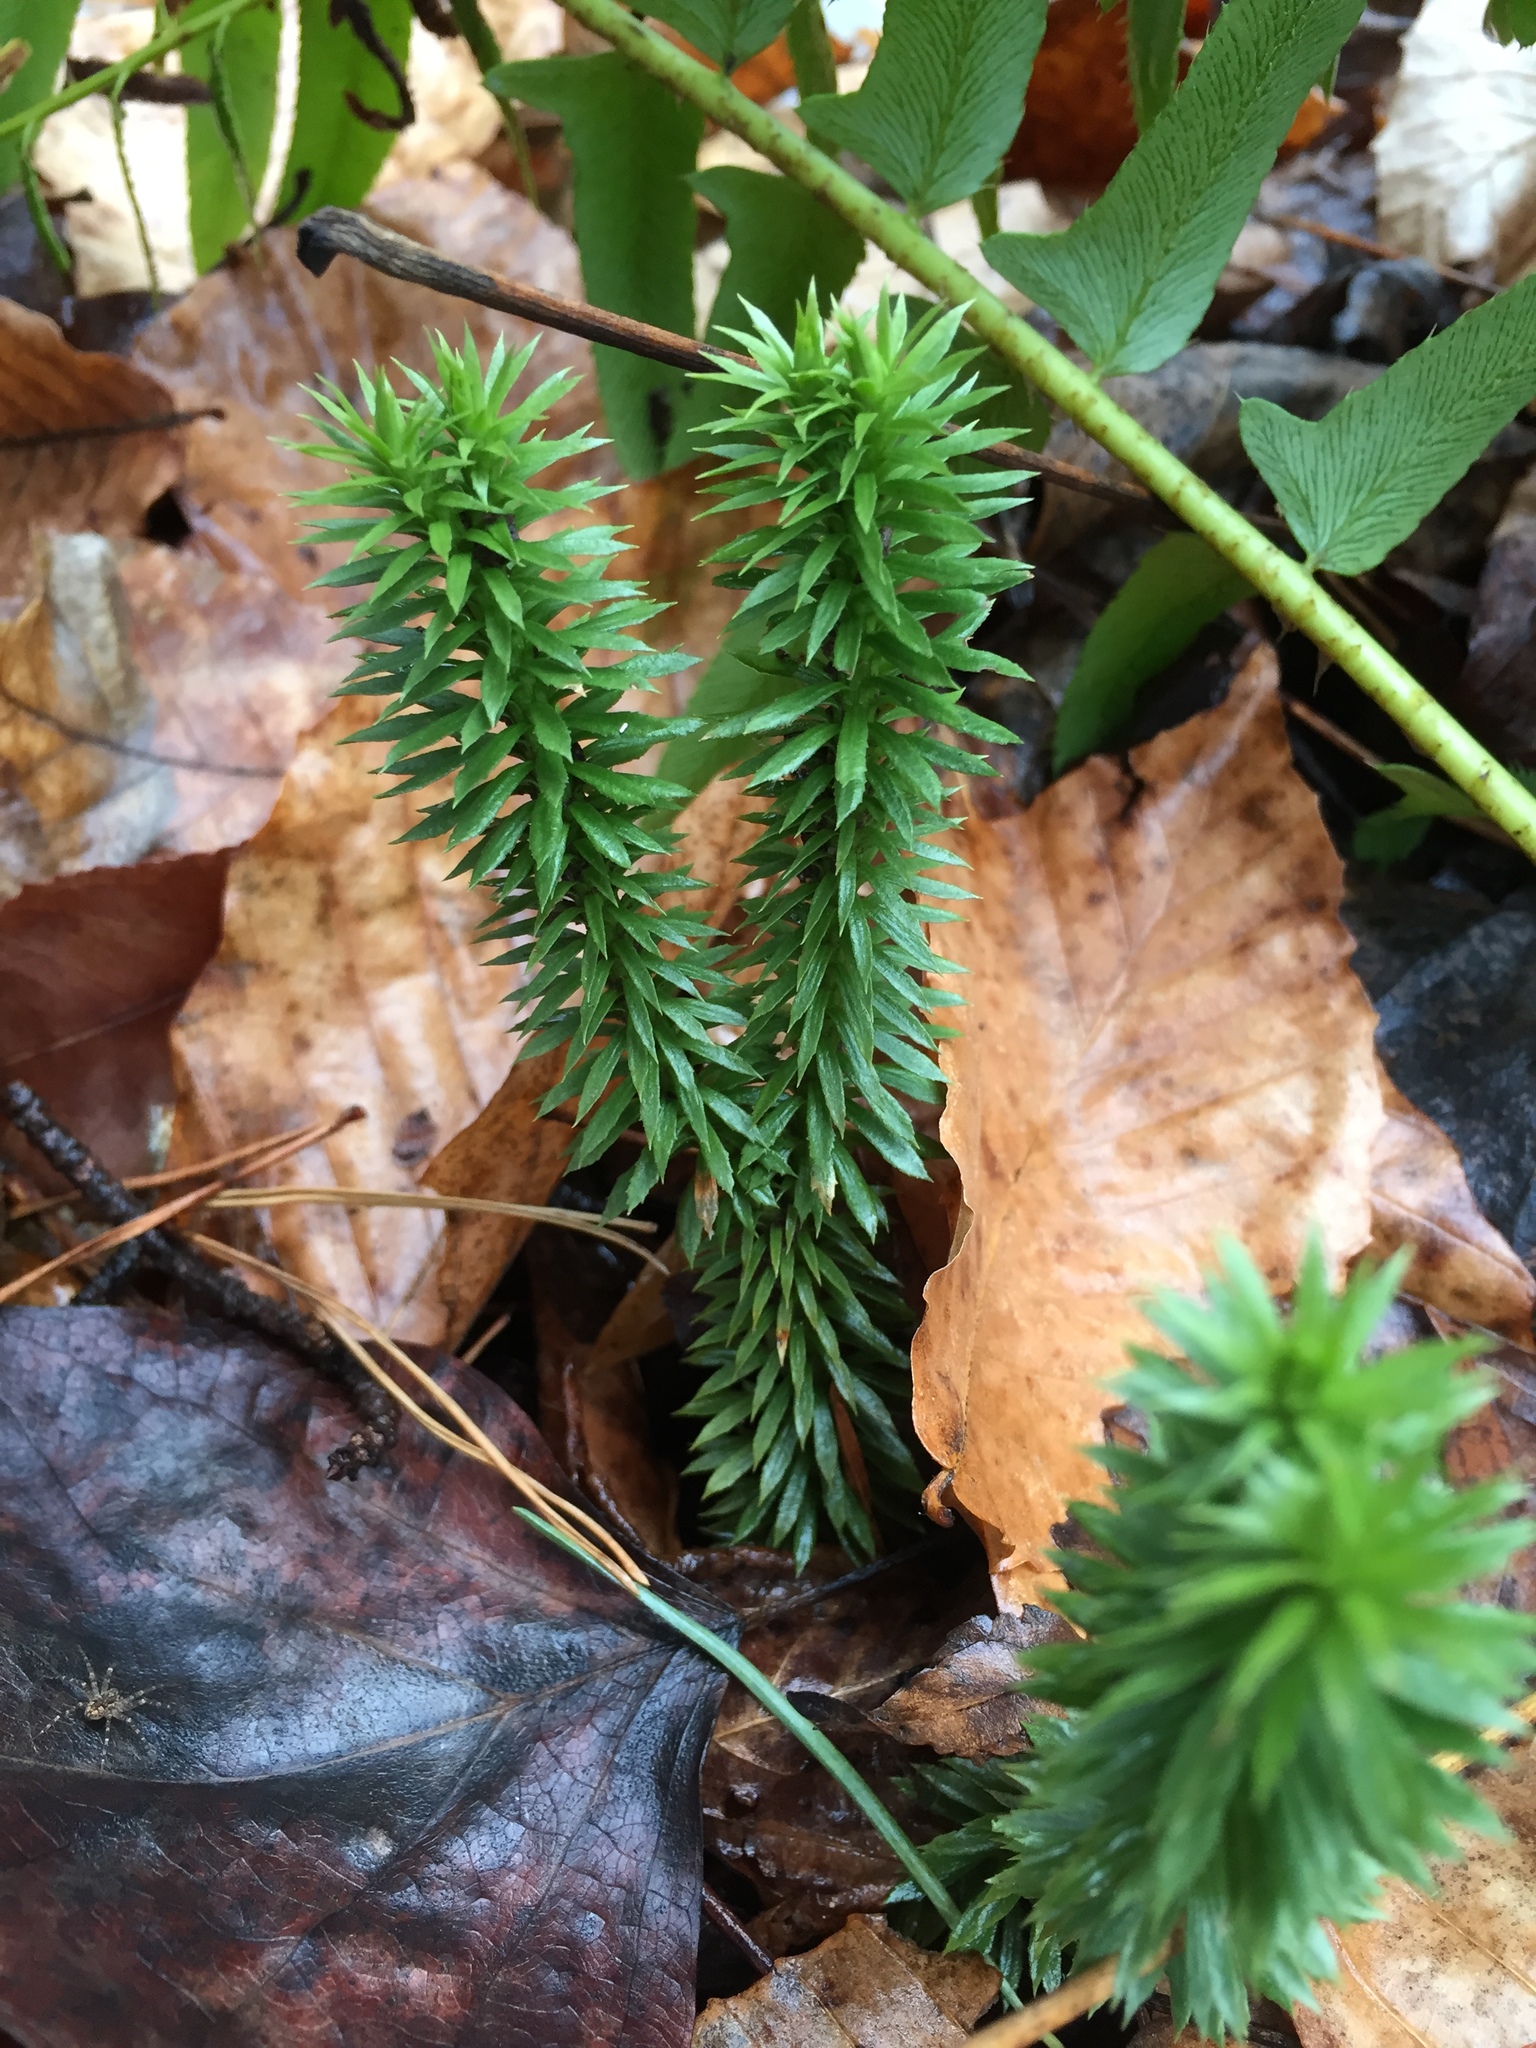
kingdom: Plantae
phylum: Tracheophyta
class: Lycopodiopsida
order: Lycopodiales
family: Lycopodiaceae
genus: Huperzia
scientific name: Huperzia lucidula
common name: Shining clubmoss
